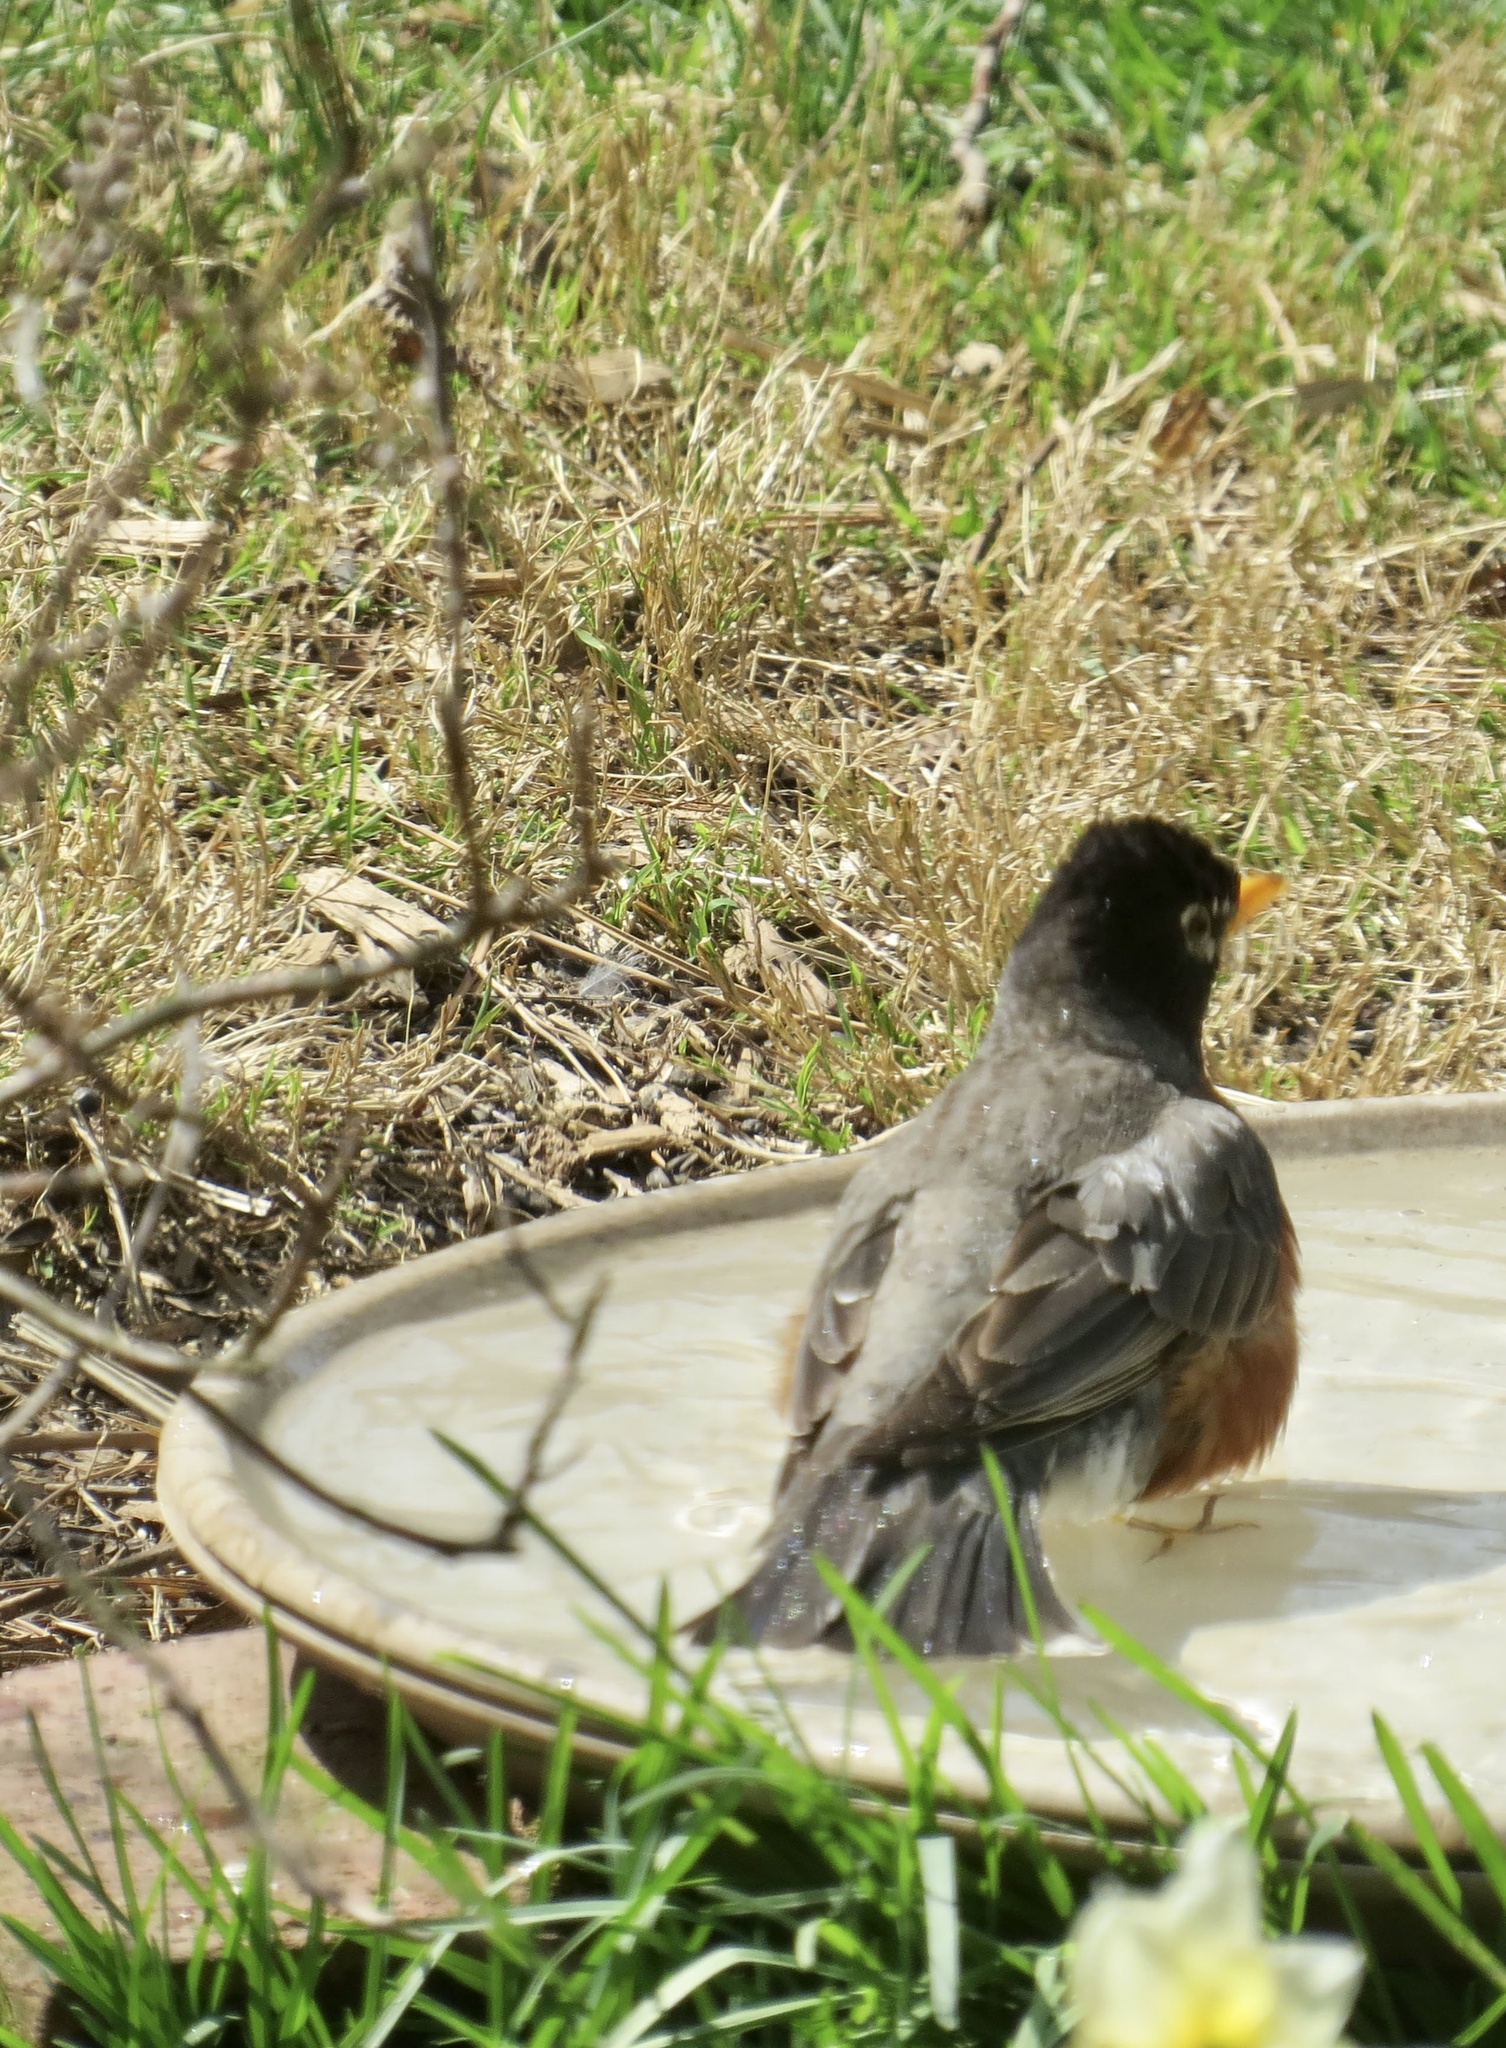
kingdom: Animalia
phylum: Chordata
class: Aves
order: Passeriformes
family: Turdidae
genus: Turdus
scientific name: Turdus migratorius
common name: American robin
